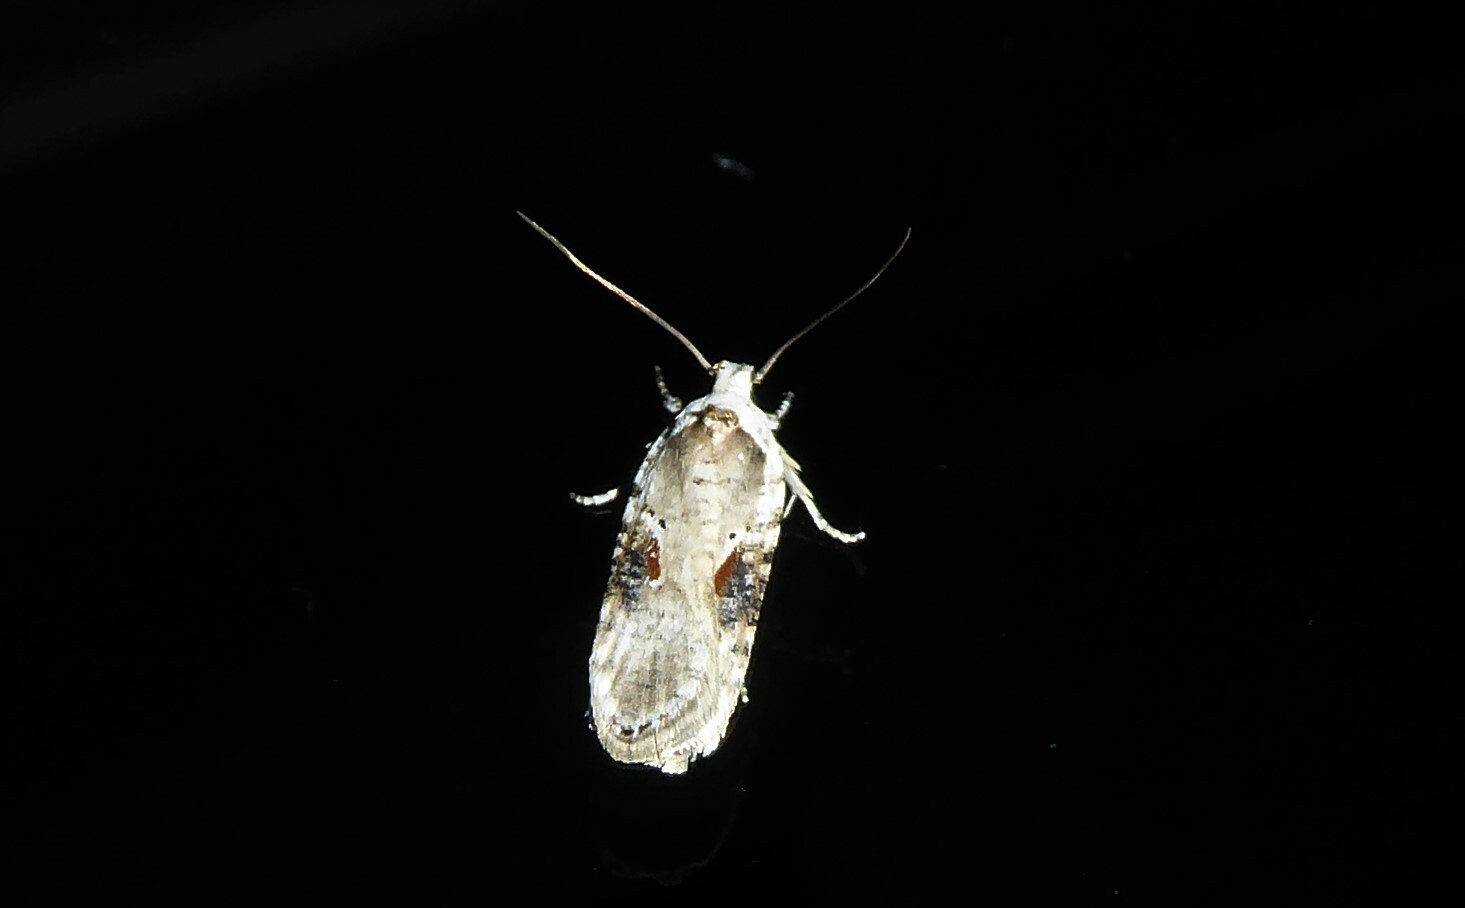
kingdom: Animalia
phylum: Arthropoda
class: Insecta
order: Lepidoptera
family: Depressariidae
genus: Agonopterix
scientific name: Agonopterix alstroemeriana
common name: Moth
